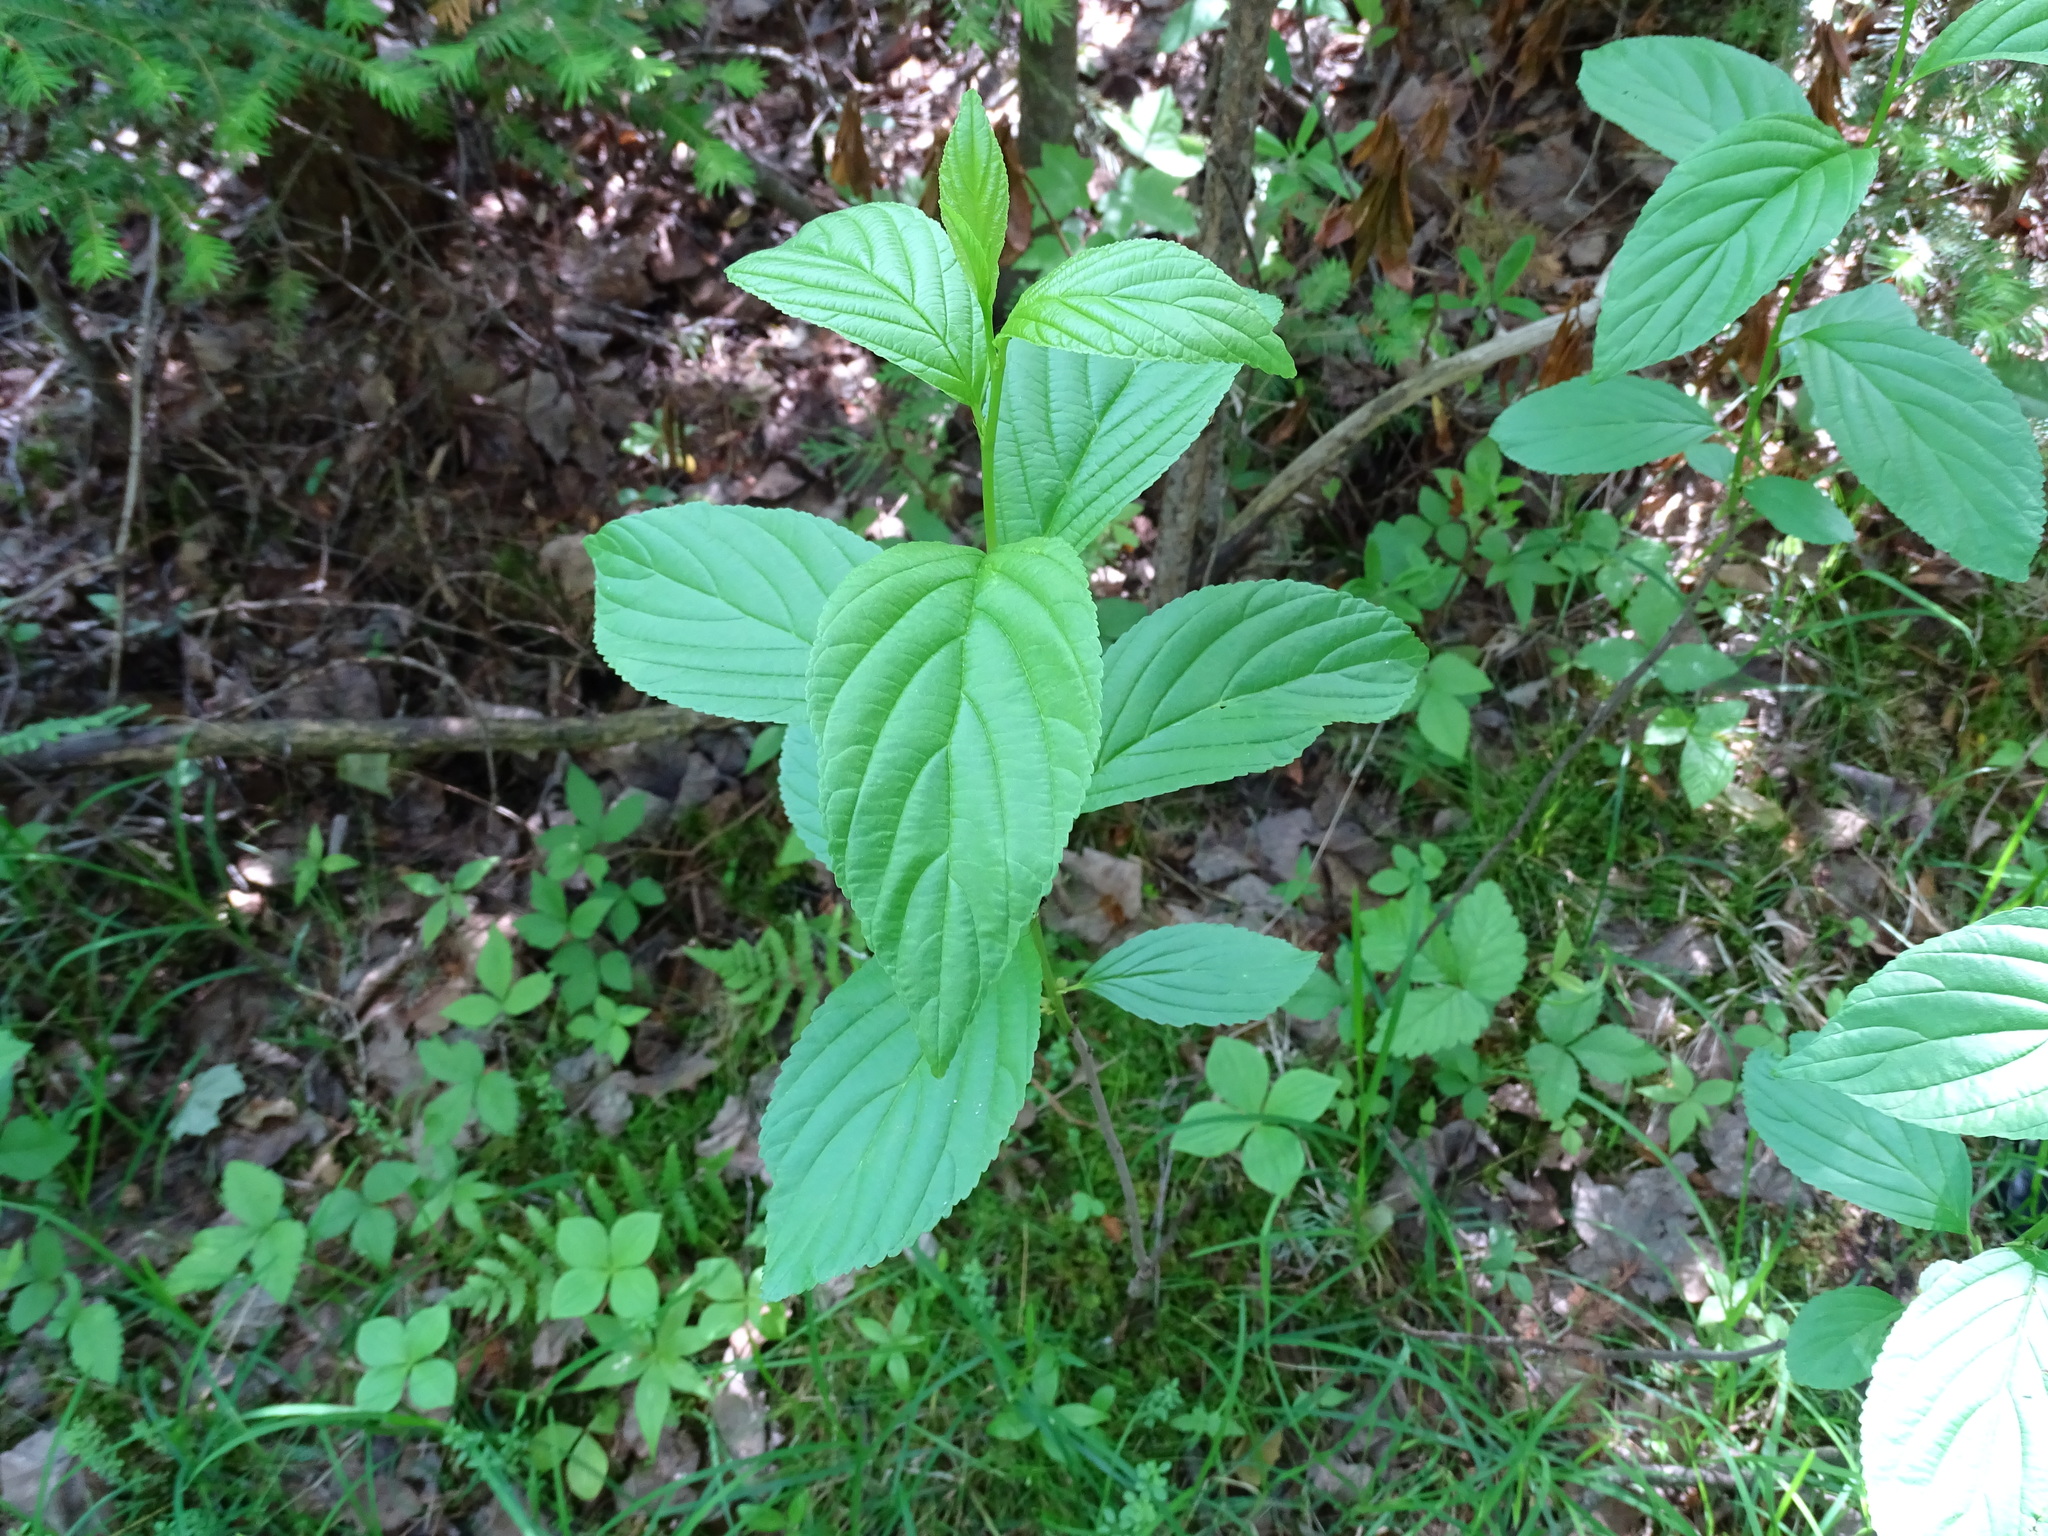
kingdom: Plantae
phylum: Tracheophyta
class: Magnoliopsida
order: Rosales
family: Rhamnaceae
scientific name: Rhamnaceae
